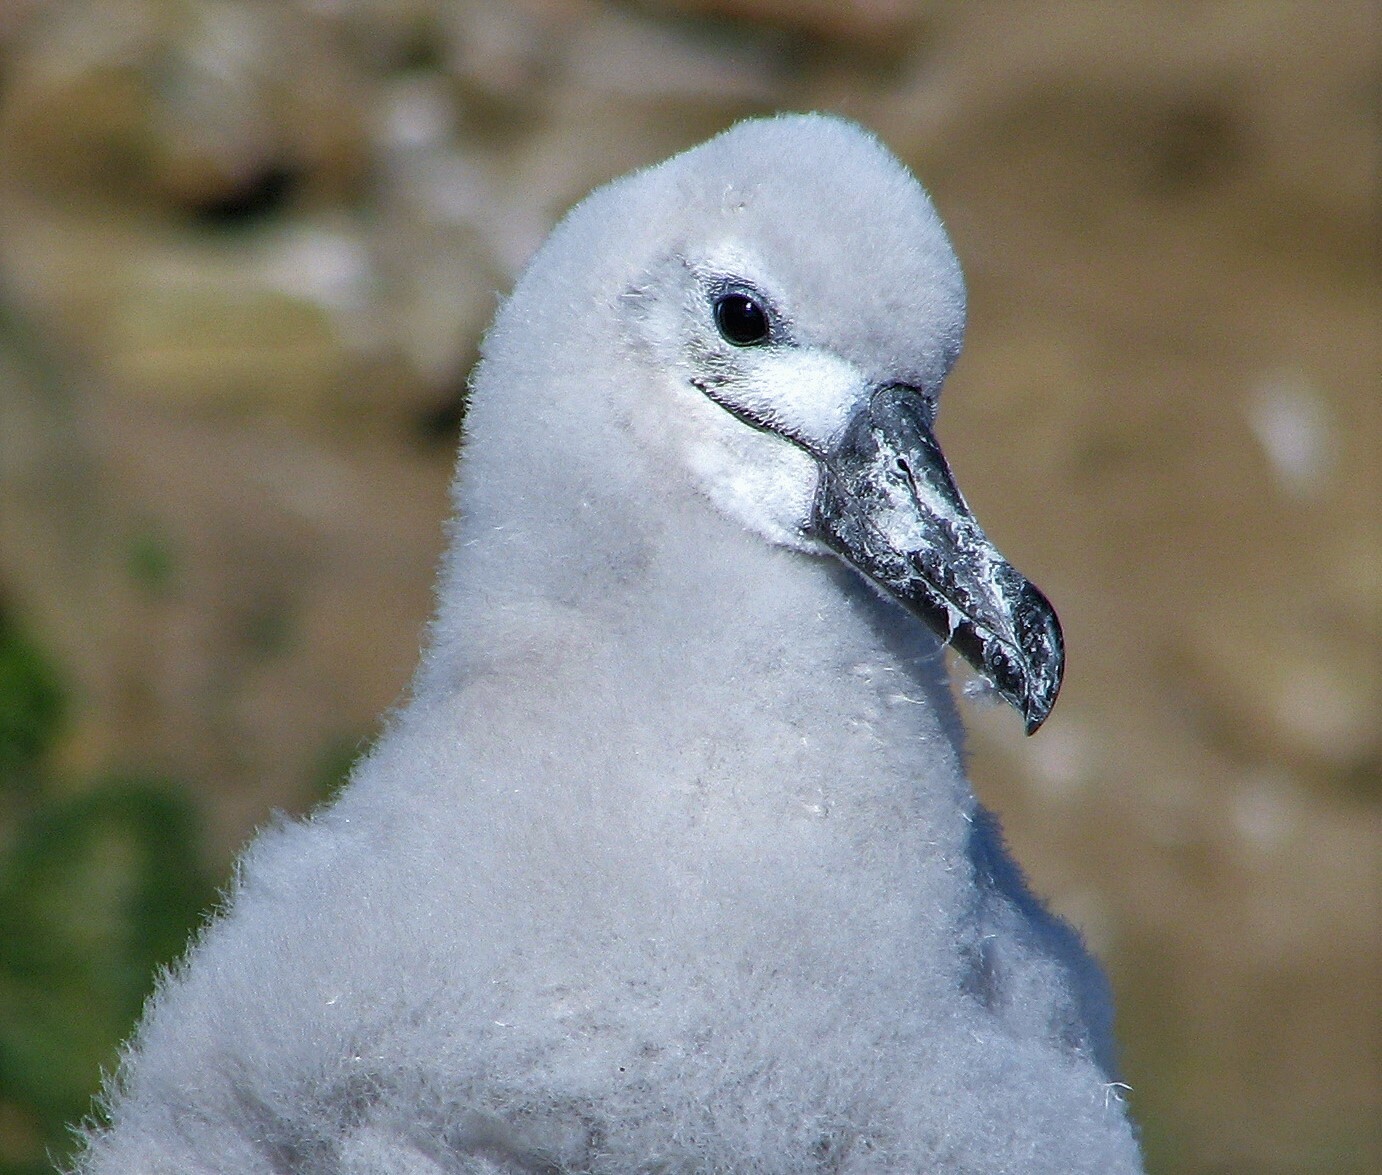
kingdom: Animalia
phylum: Chordata
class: Aves
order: Procellariiformes
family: Diomedeidae
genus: Thalassarche
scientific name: Thalassarche melanophris
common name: Black-browed albatross
